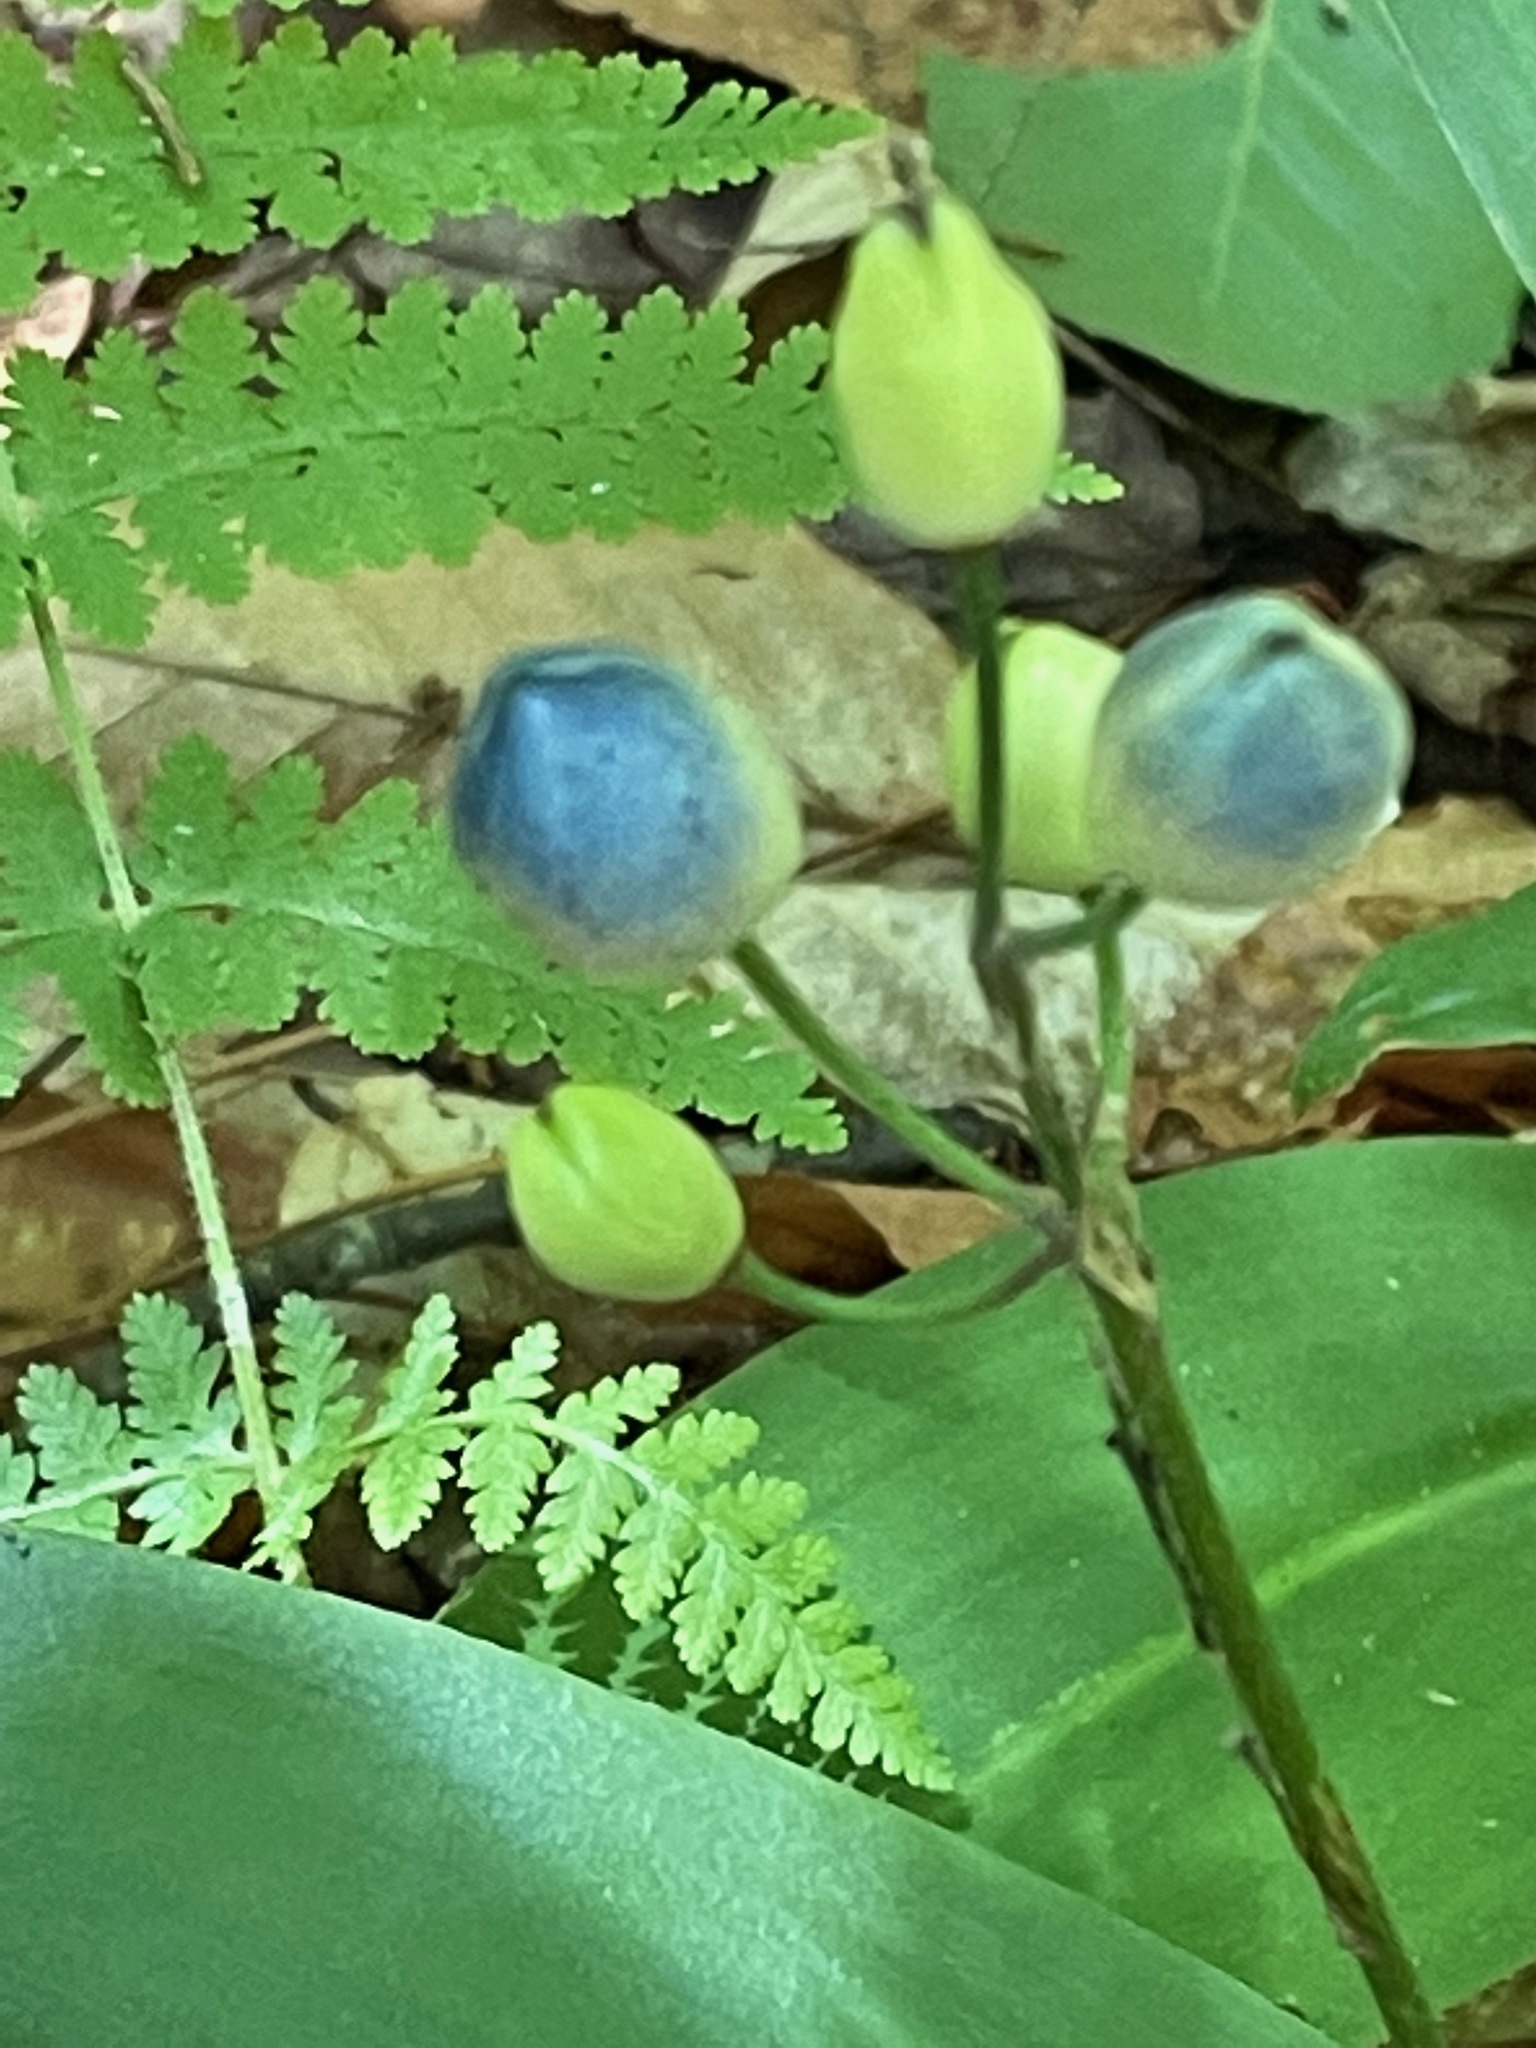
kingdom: Plantae
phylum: Tracheophyta
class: Liliopsida
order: Liliales
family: Liliaceae
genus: Clintonia
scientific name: Clintonia borealis
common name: Yellow clintonia
